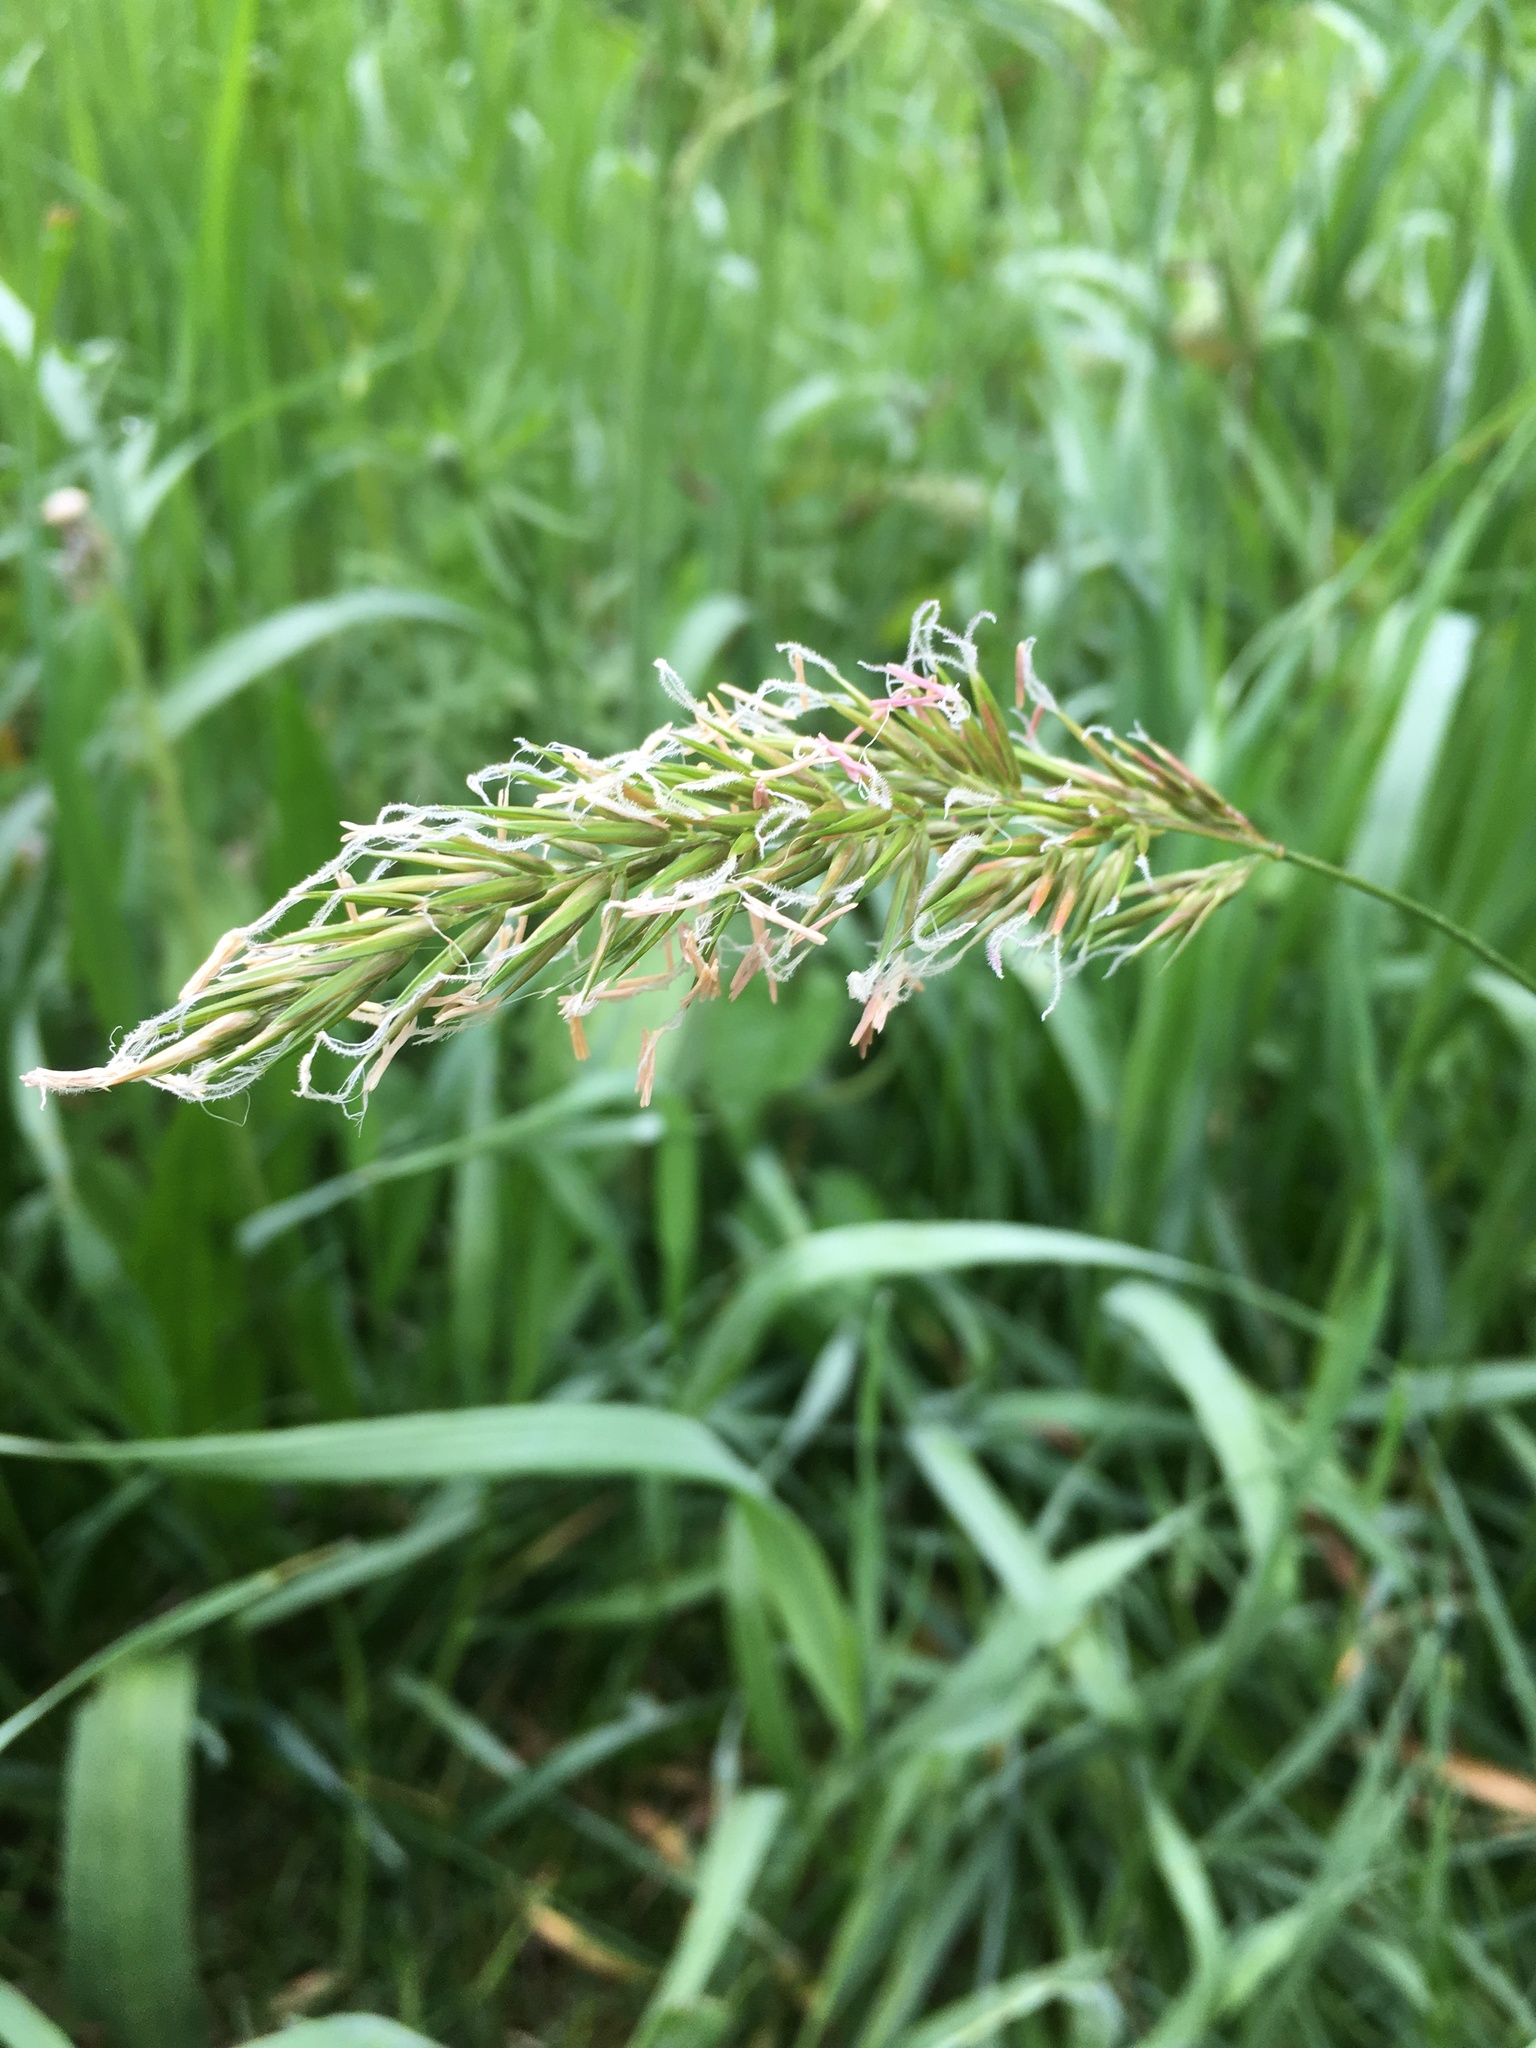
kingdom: Plantae
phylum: Tracheophyta
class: Liliopsida
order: Poales
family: Poaceae
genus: Anthoxanthum
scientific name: Anthoxanthum odoratum
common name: Sweet vernalgrass
